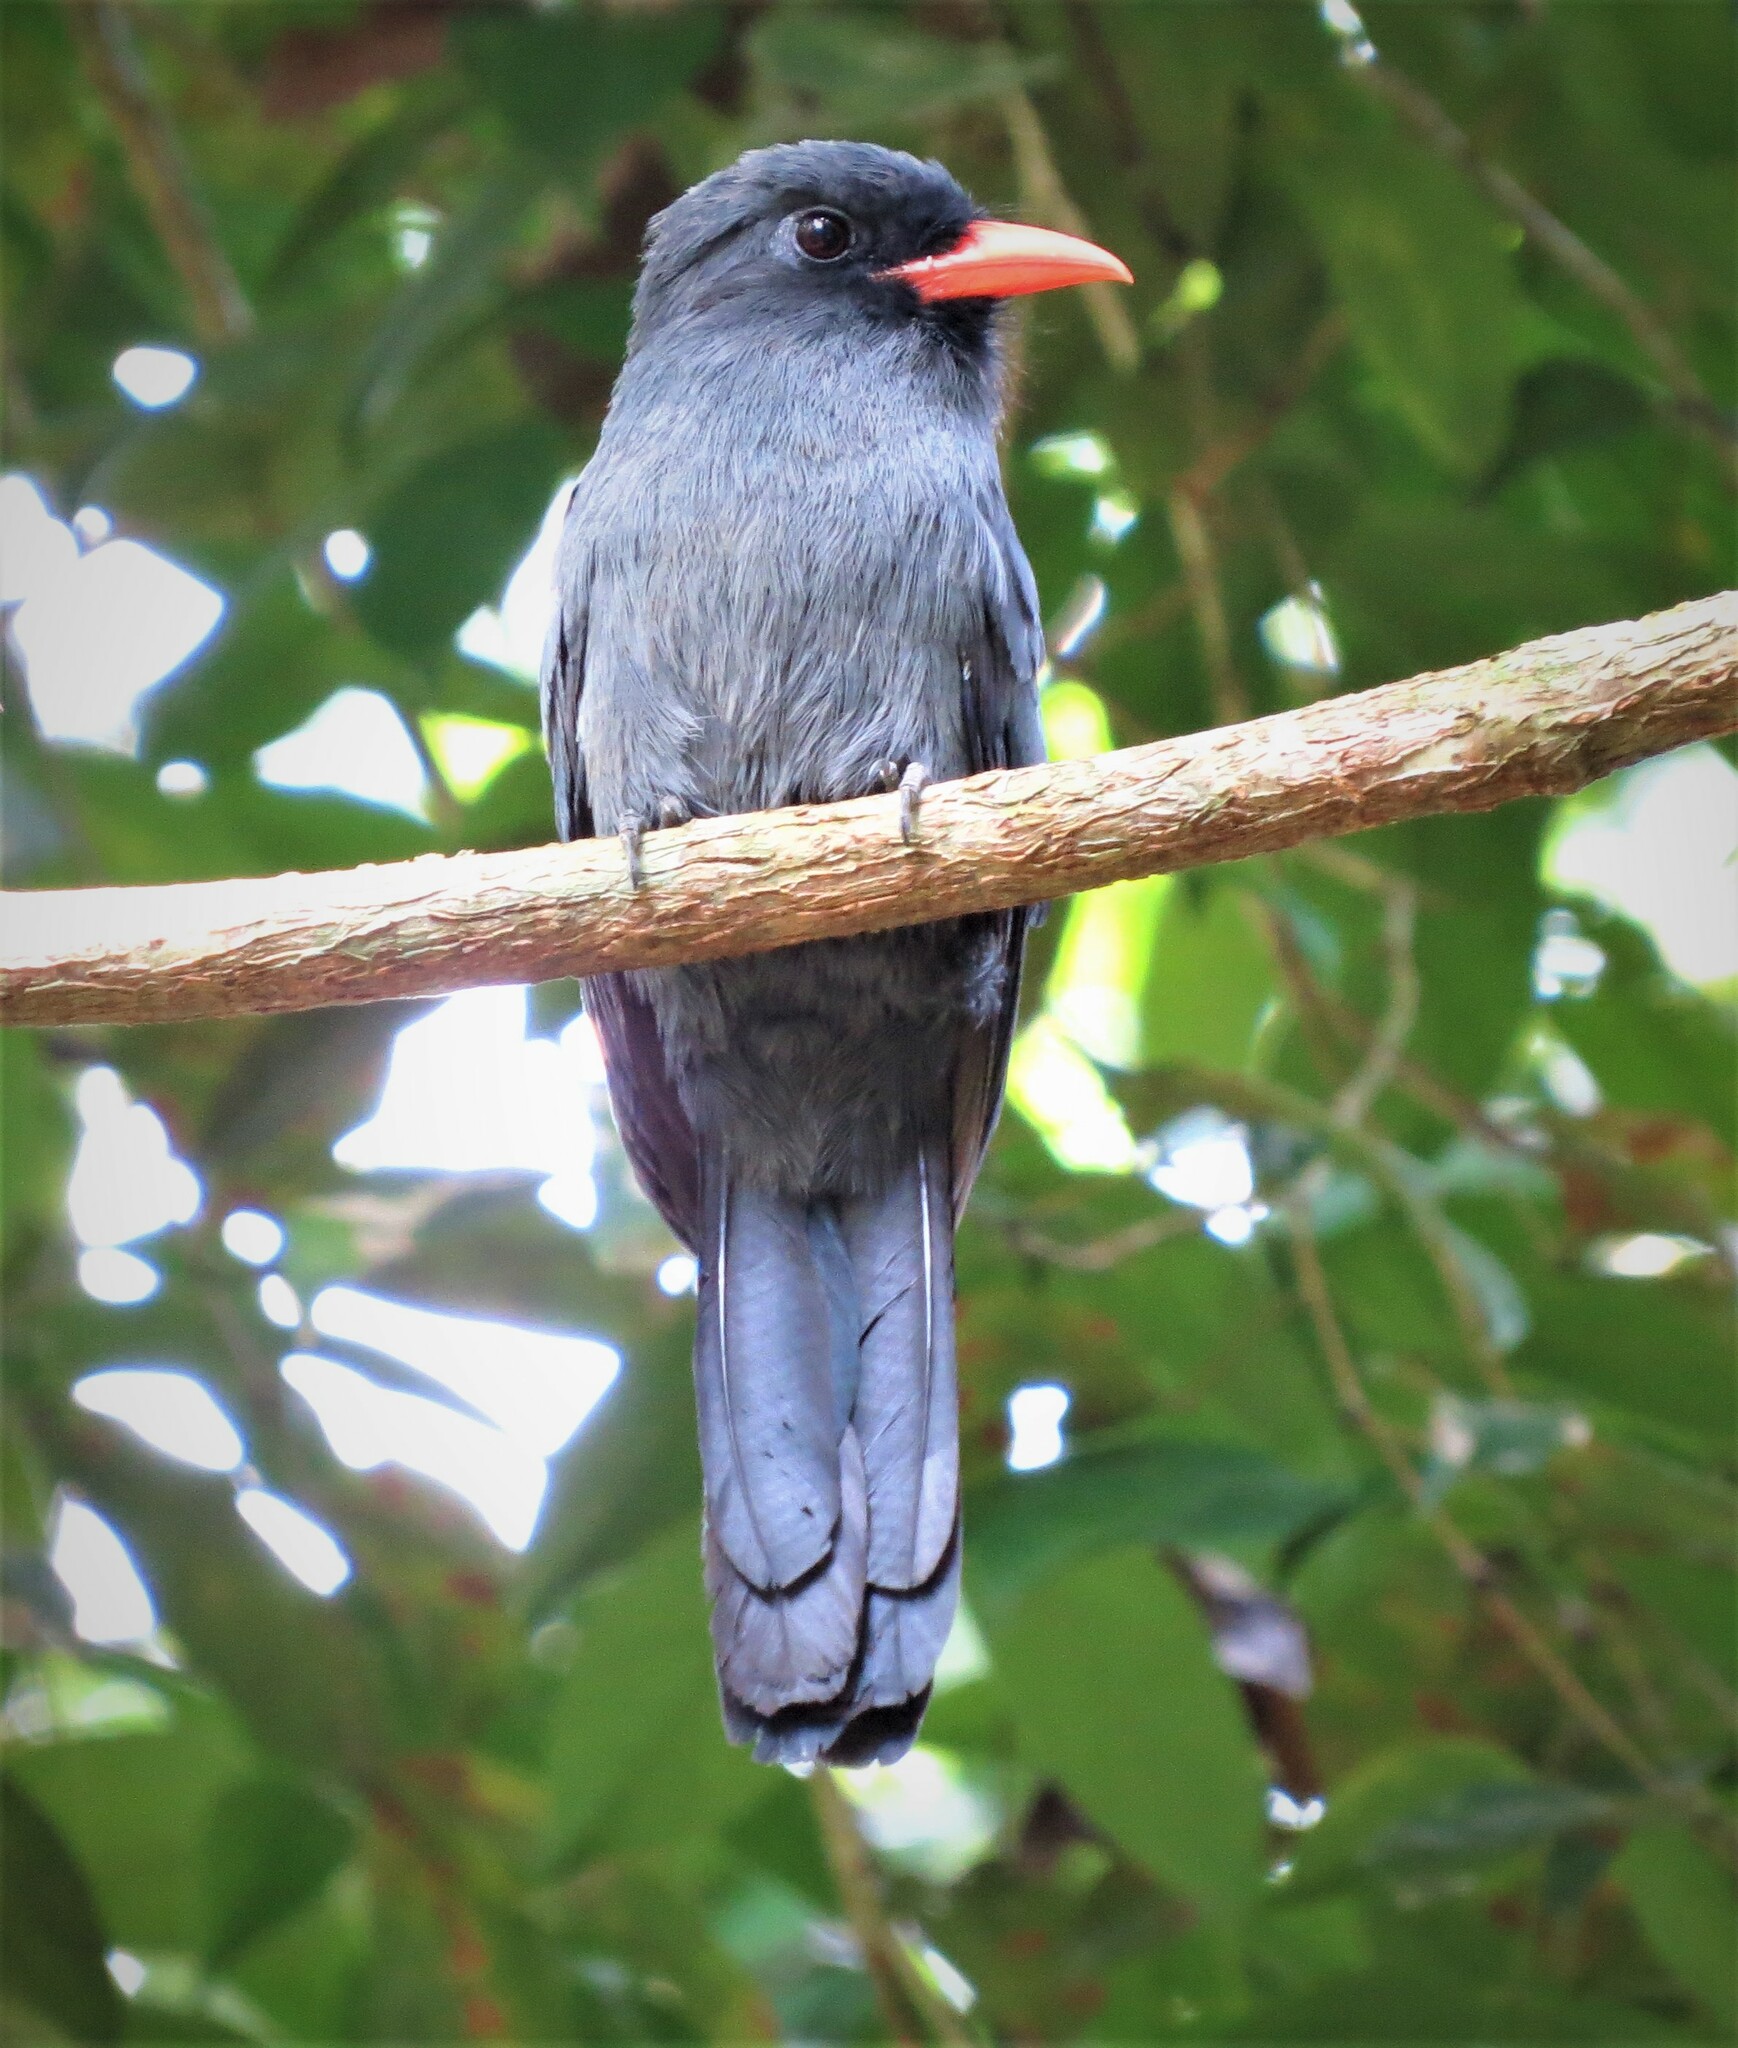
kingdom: Animalia
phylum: Chordata
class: Aves
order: Piciformes
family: Bucconidae
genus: Monasa
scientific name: Monasa nigrifrons
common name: Black-fronted nunbird
